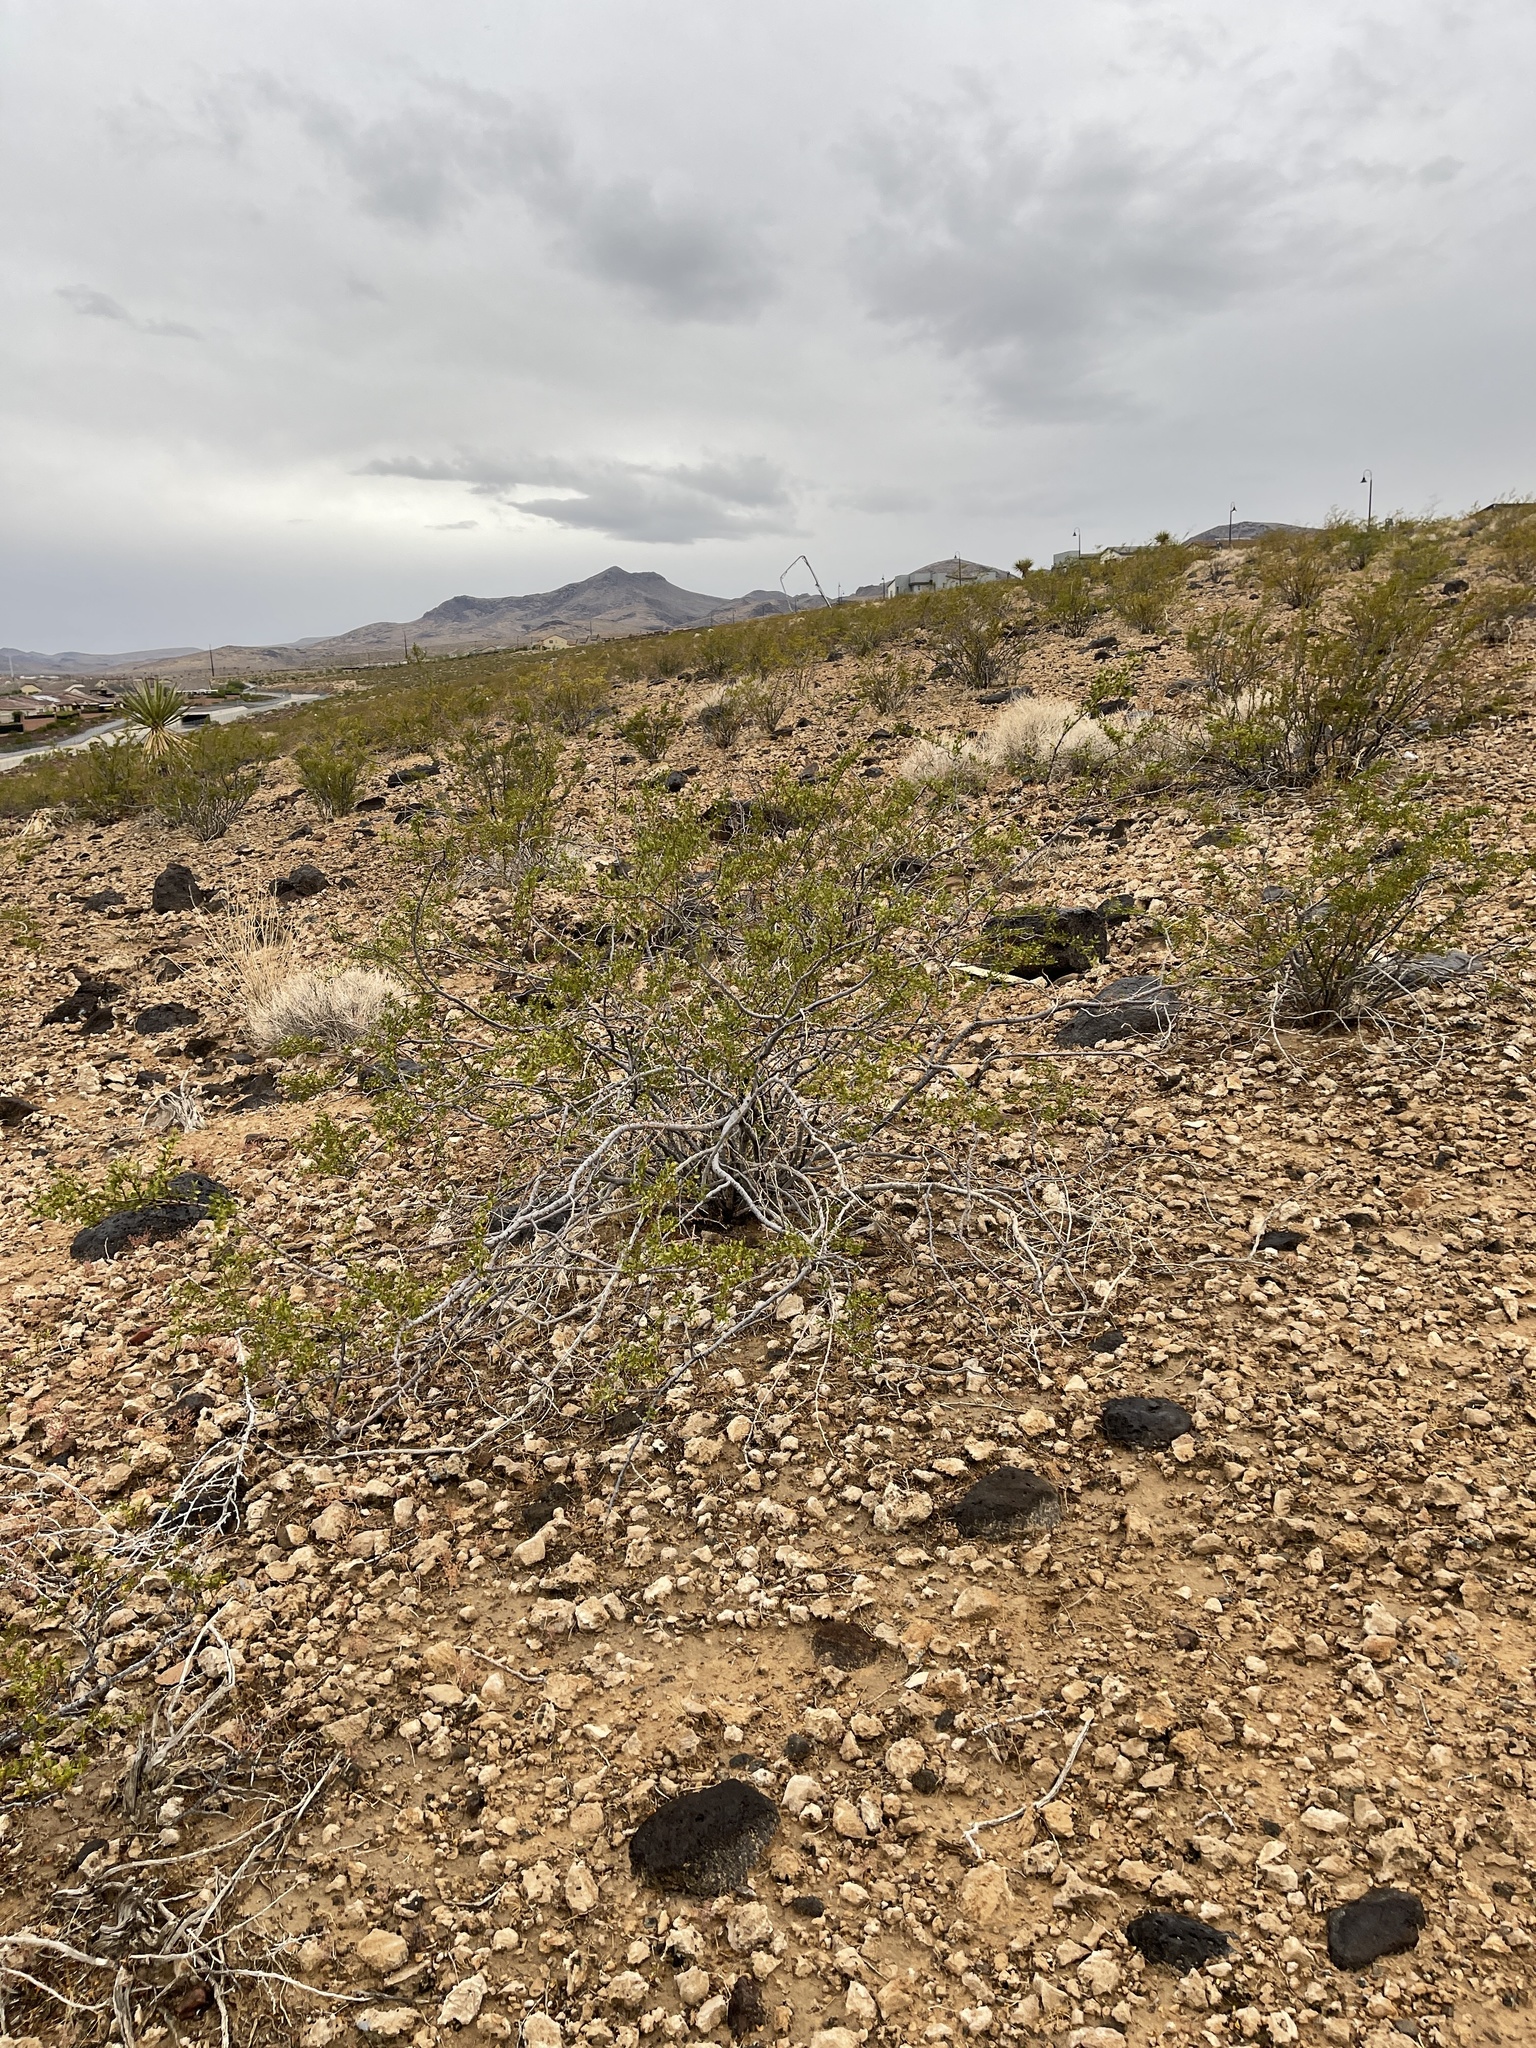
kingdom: Plantae
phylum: Tracheophyta
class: Magnoliopsida
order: Zygophyllales
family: Zygophyllaceae
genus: Larrea
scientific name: Larrea tridentata
